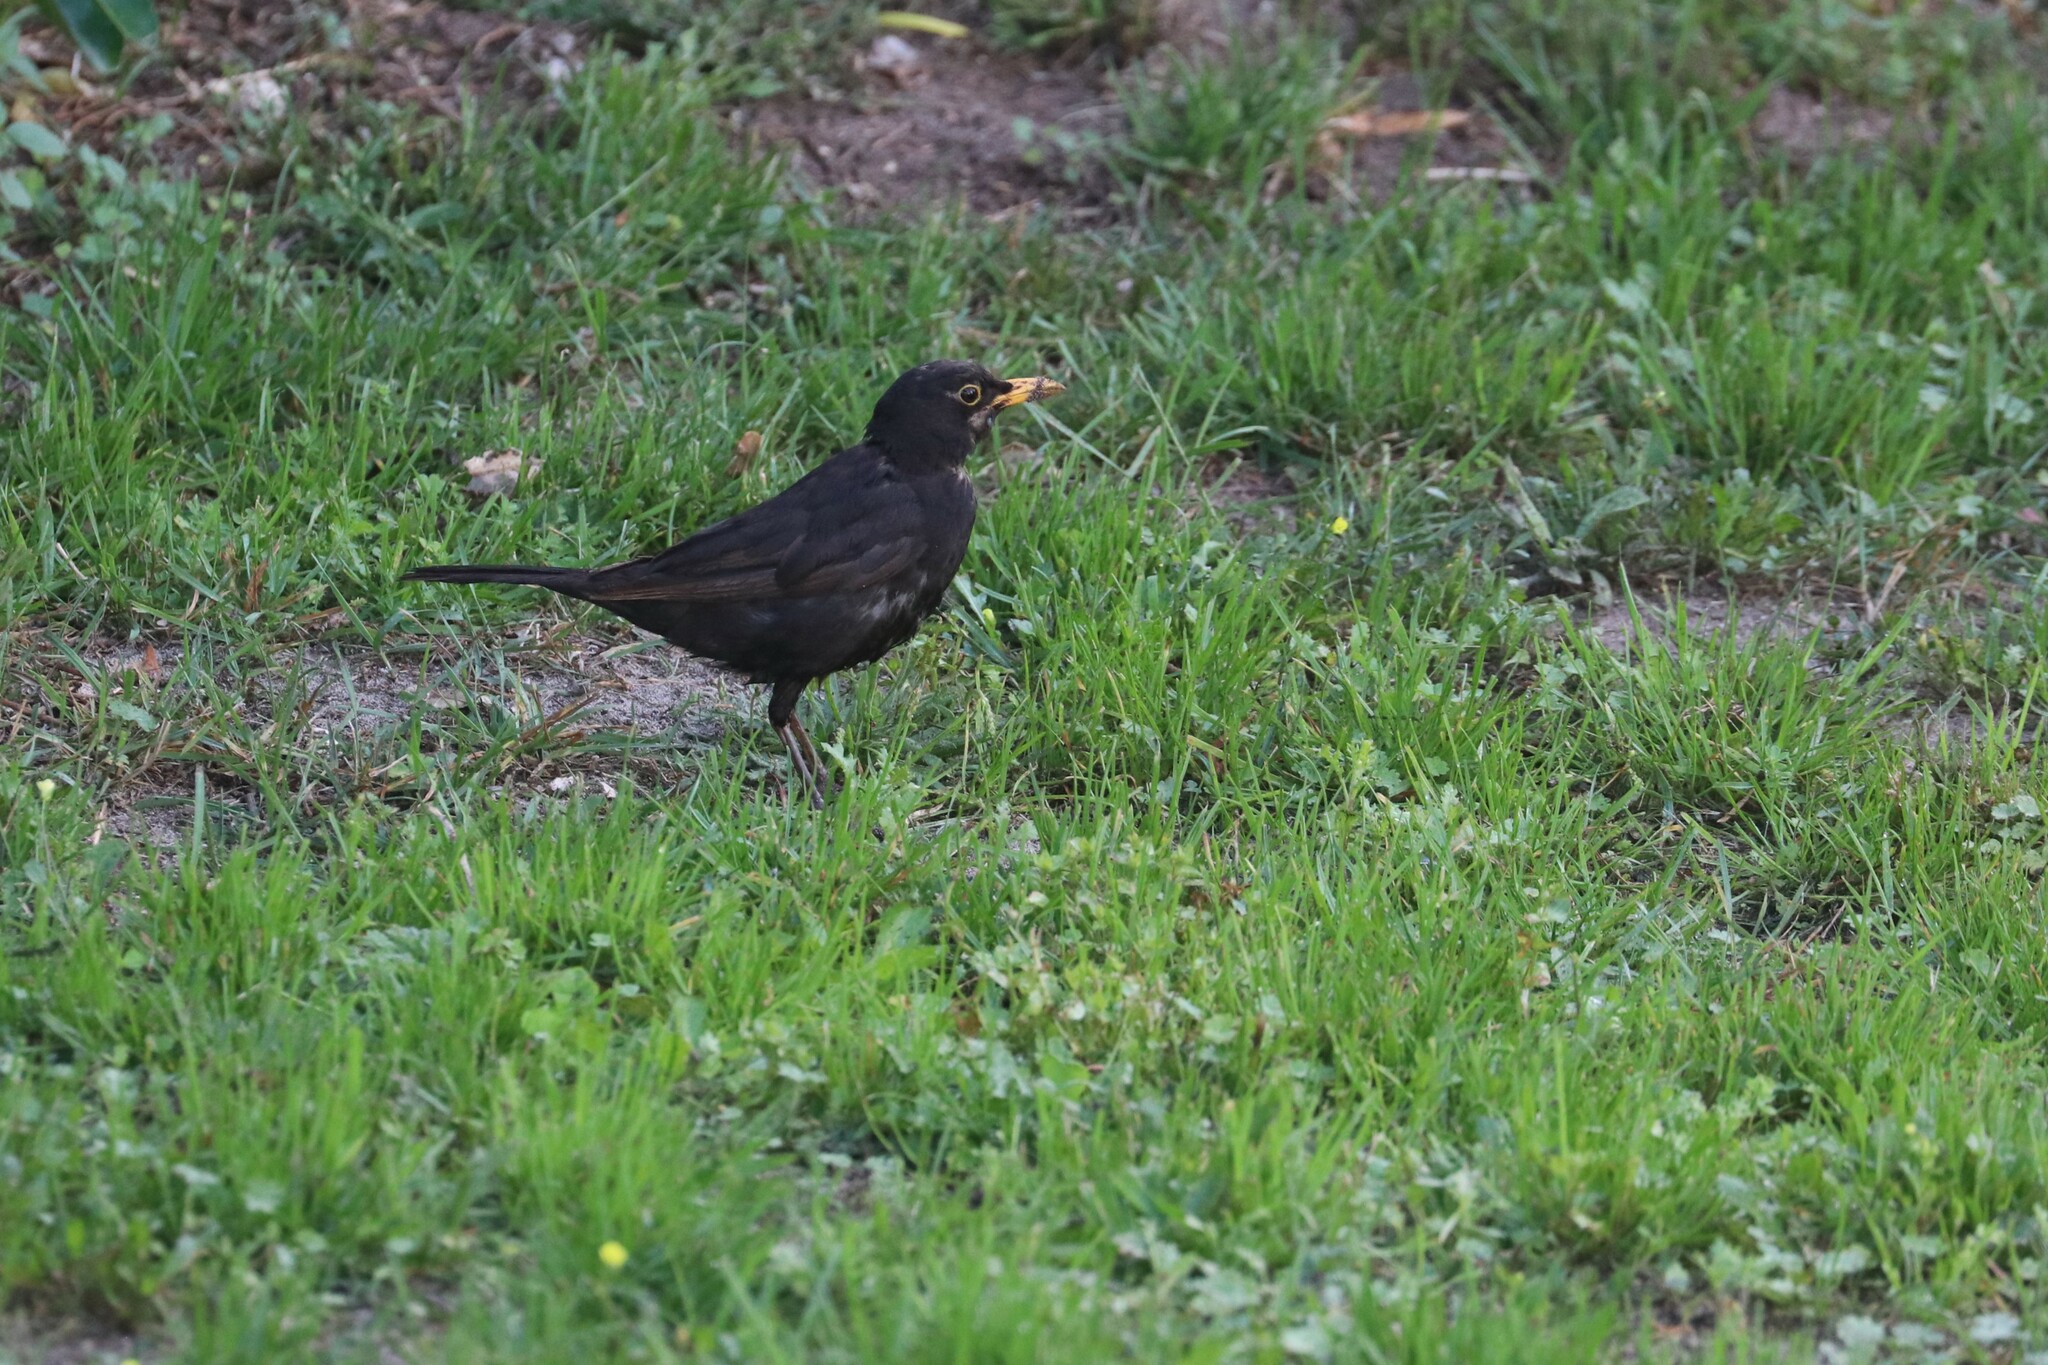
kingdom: Animalia
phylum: Chordata
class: Aves
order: Passeriformes
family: Turdidae
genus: Turdus
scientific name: Turdus merula
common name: Common blackbird
